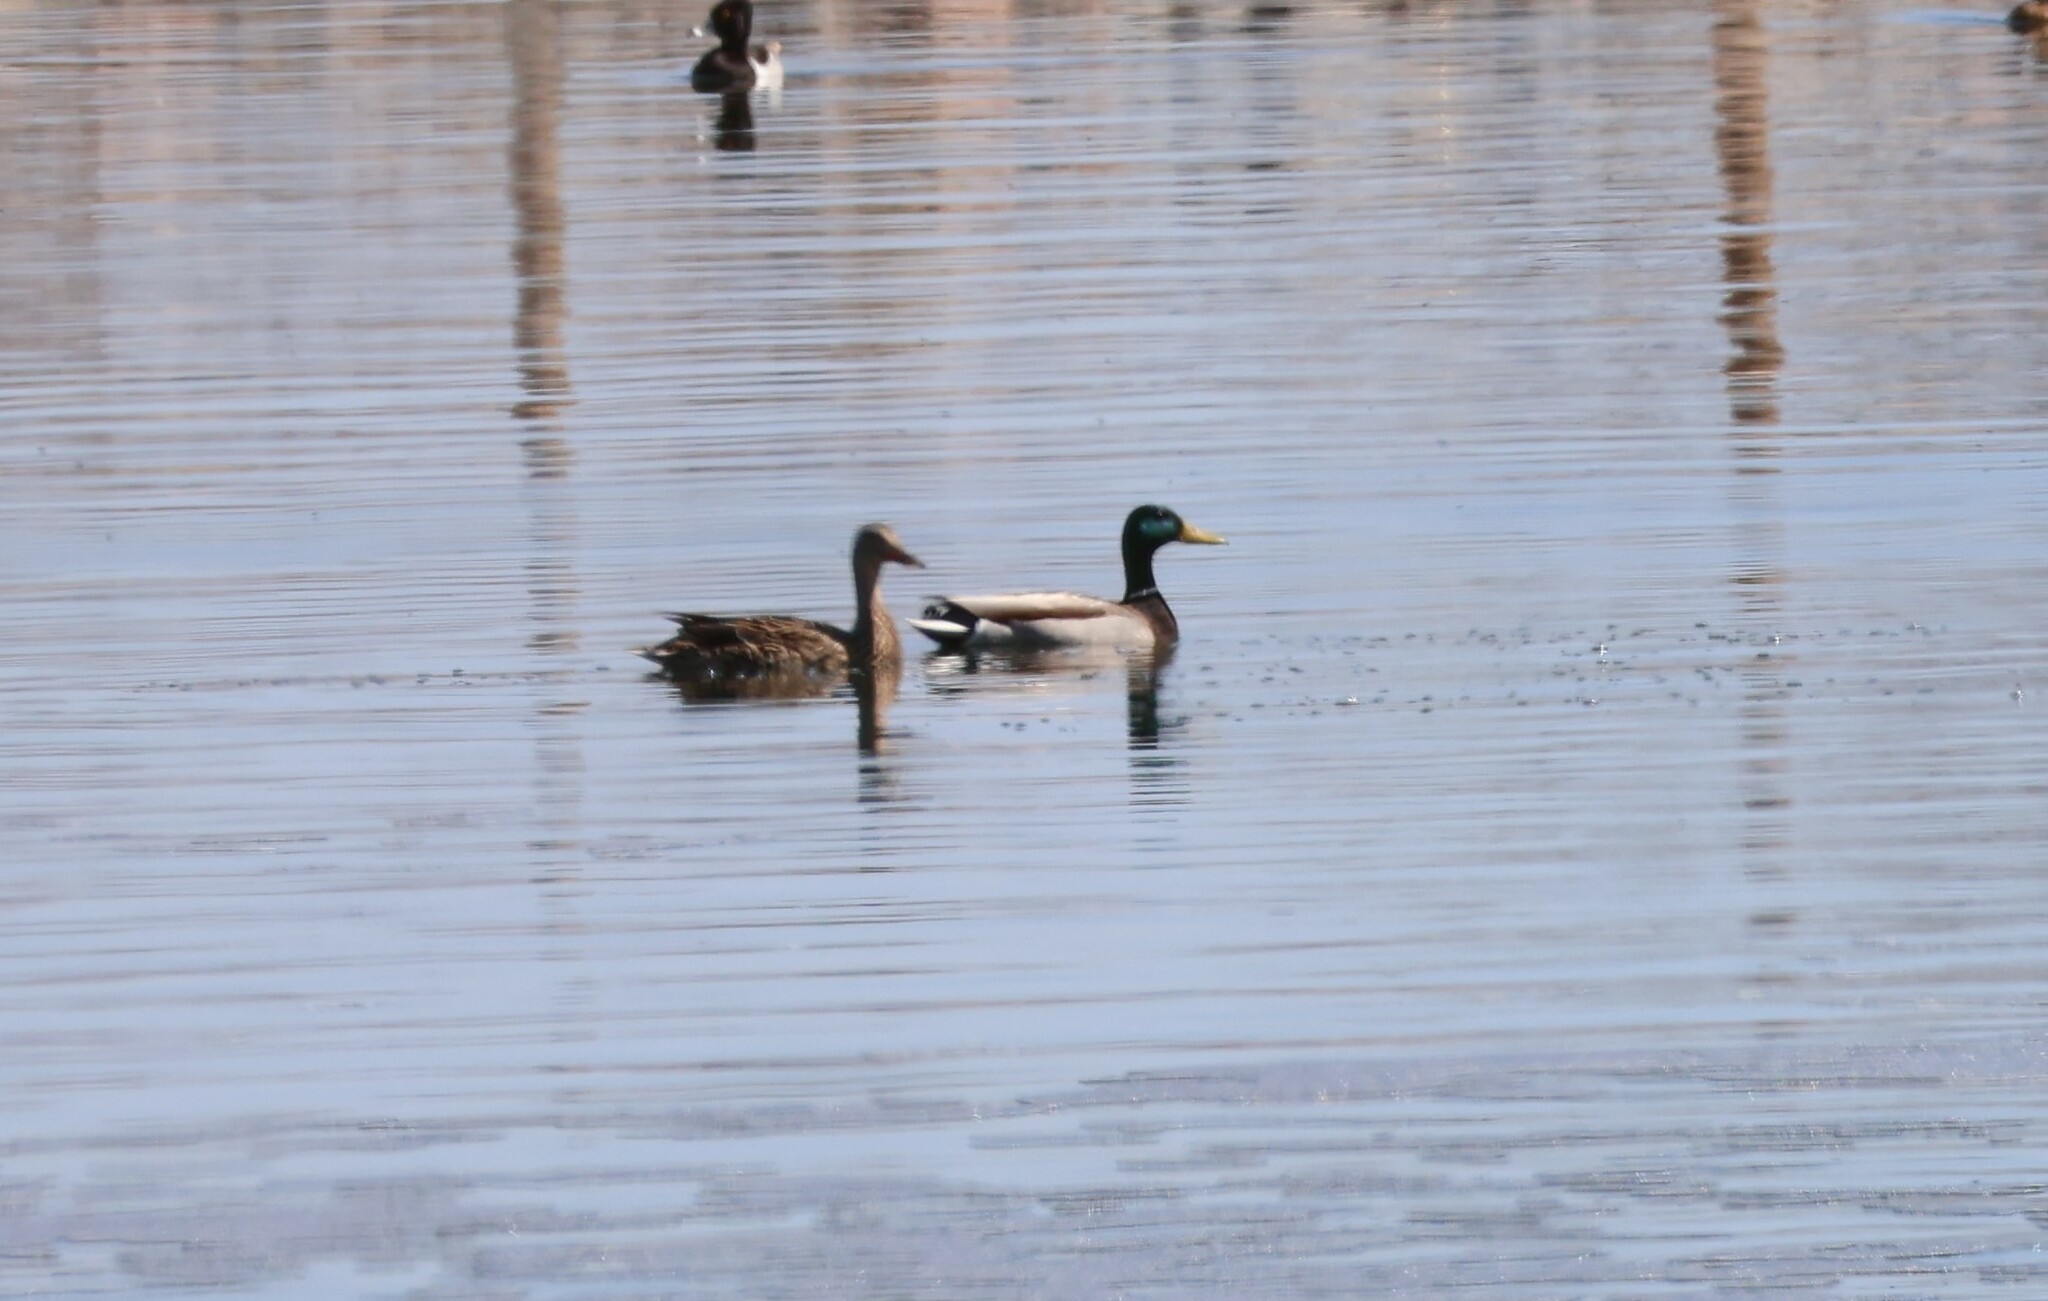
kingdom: Animalia
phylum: Chordata
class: Aves
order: Anseriformes
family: Anatidae
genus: Anas
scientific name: Anas platyrhynchos
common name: Mallard
